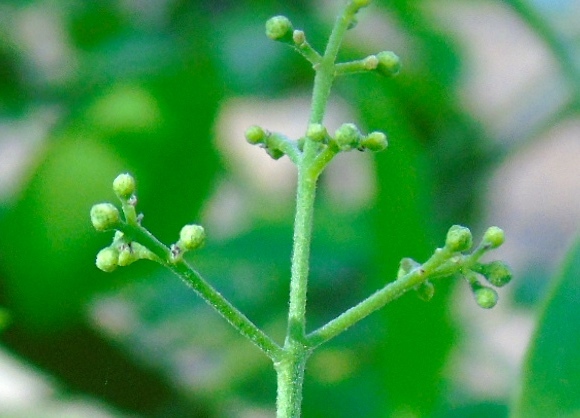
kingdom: Plantae
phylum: Tracheophyta
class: Magnoliopsida
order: Sapindales
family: Rutaceae
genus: Amyris
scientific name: Amyris balsamifera
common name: Balsam amyris
